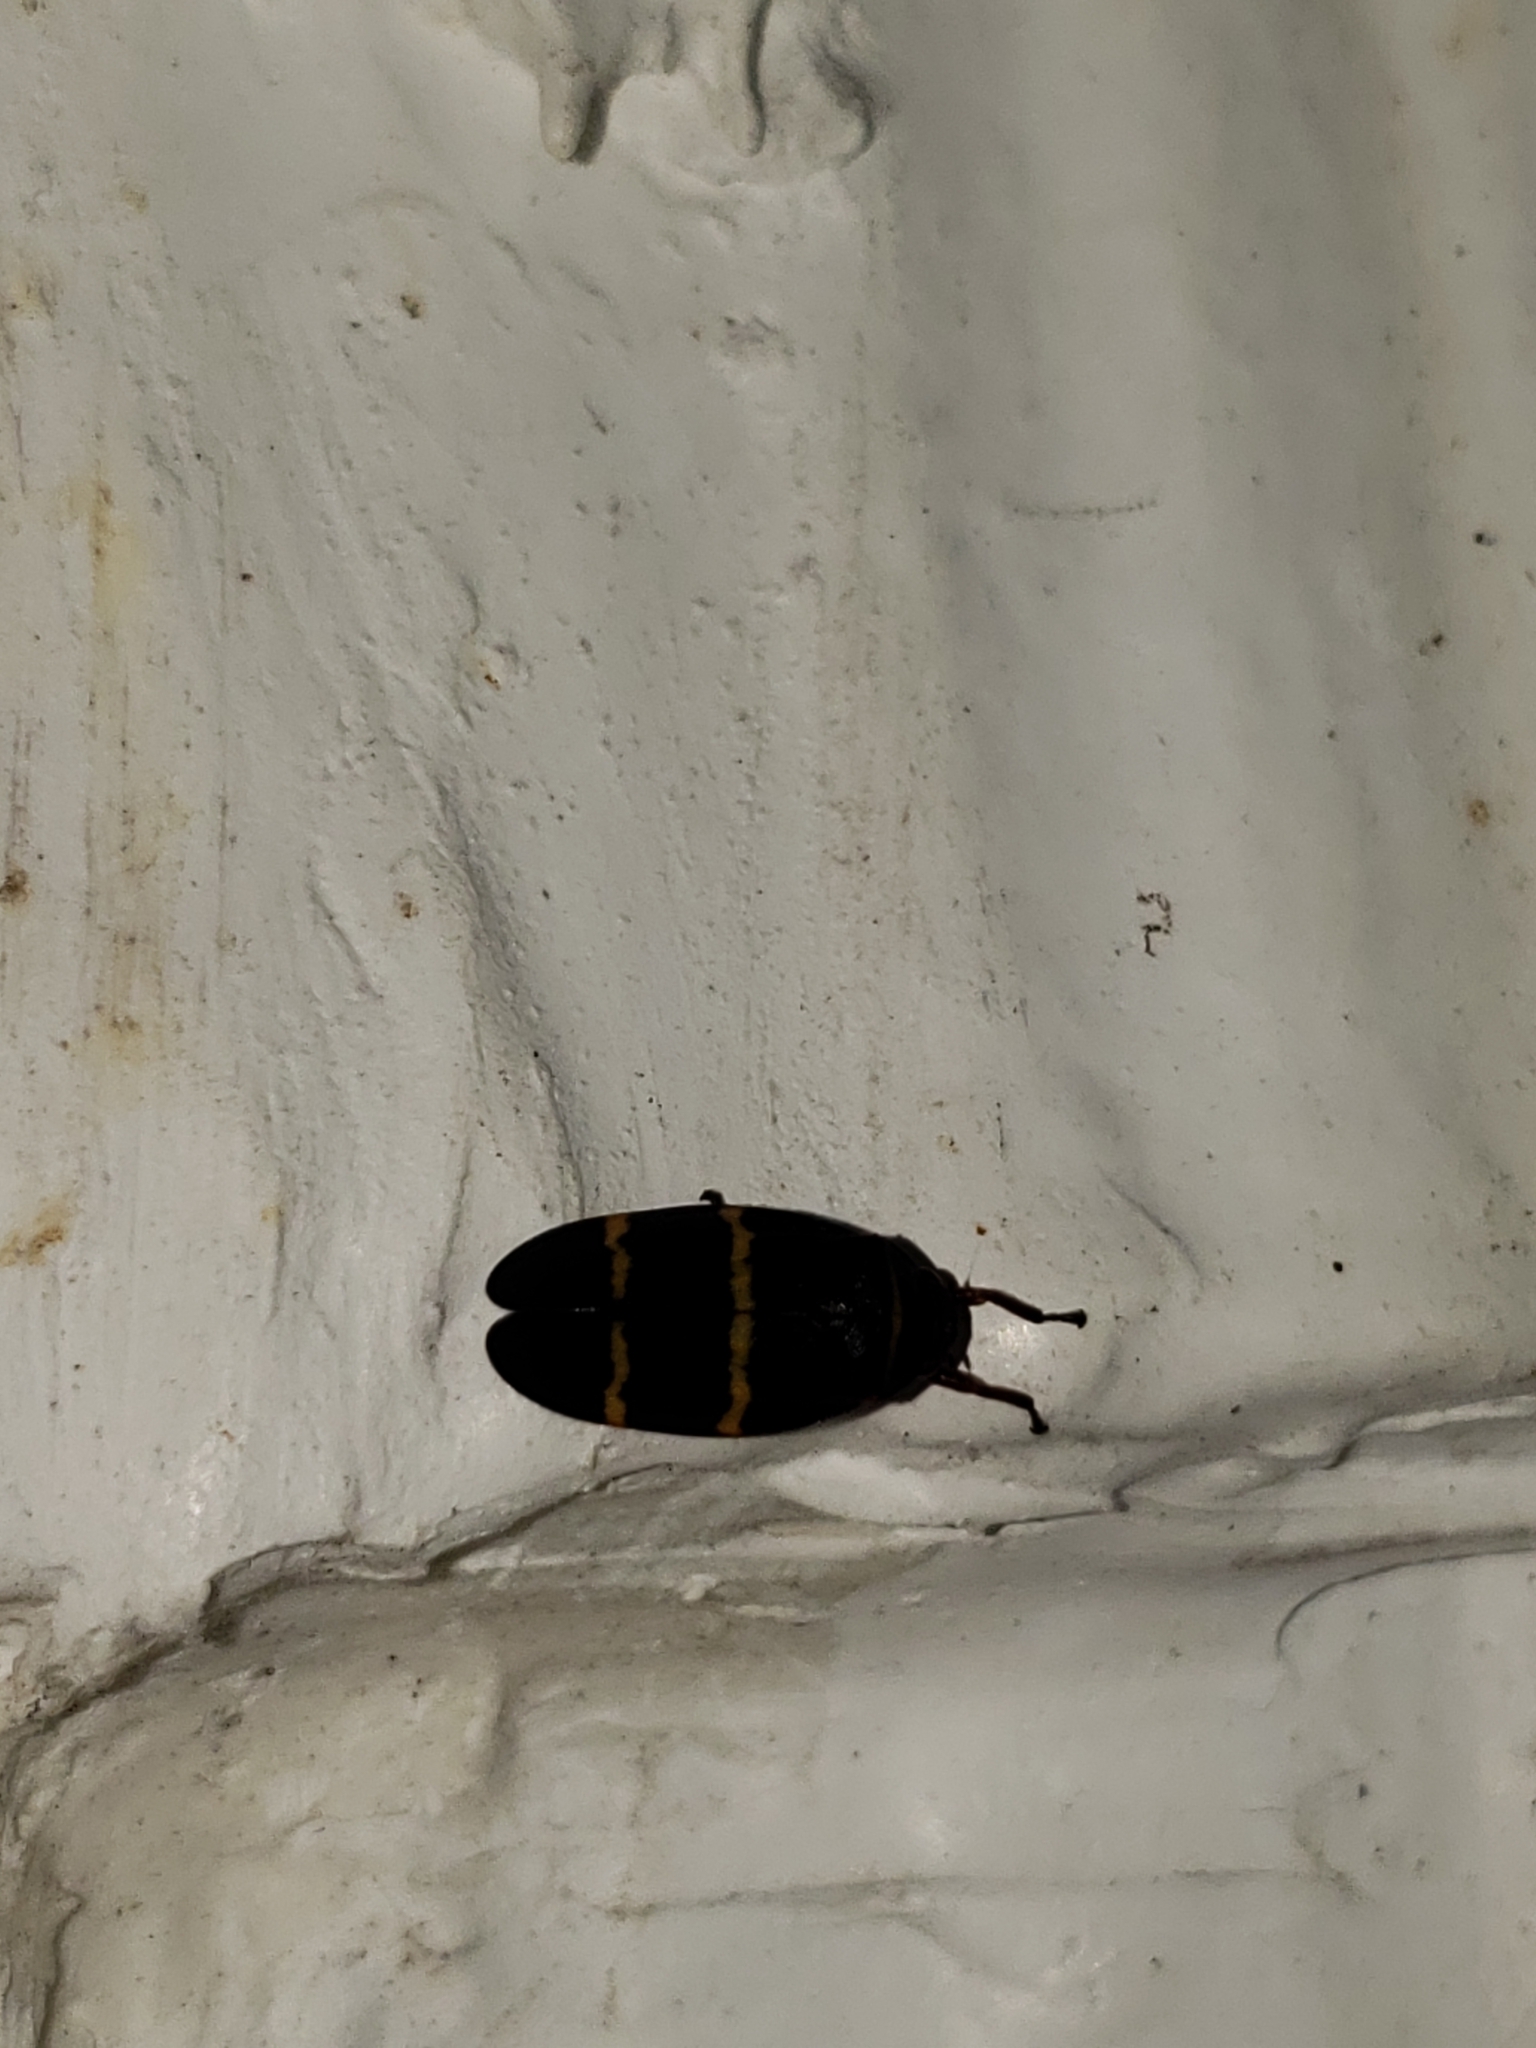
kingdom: Animalia
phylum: Arthropoda
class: Insecta
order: Hemiptera
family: Cercopidae
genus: Prosapia
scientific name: Prosapia bicincta
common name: Twolined spittlebug
